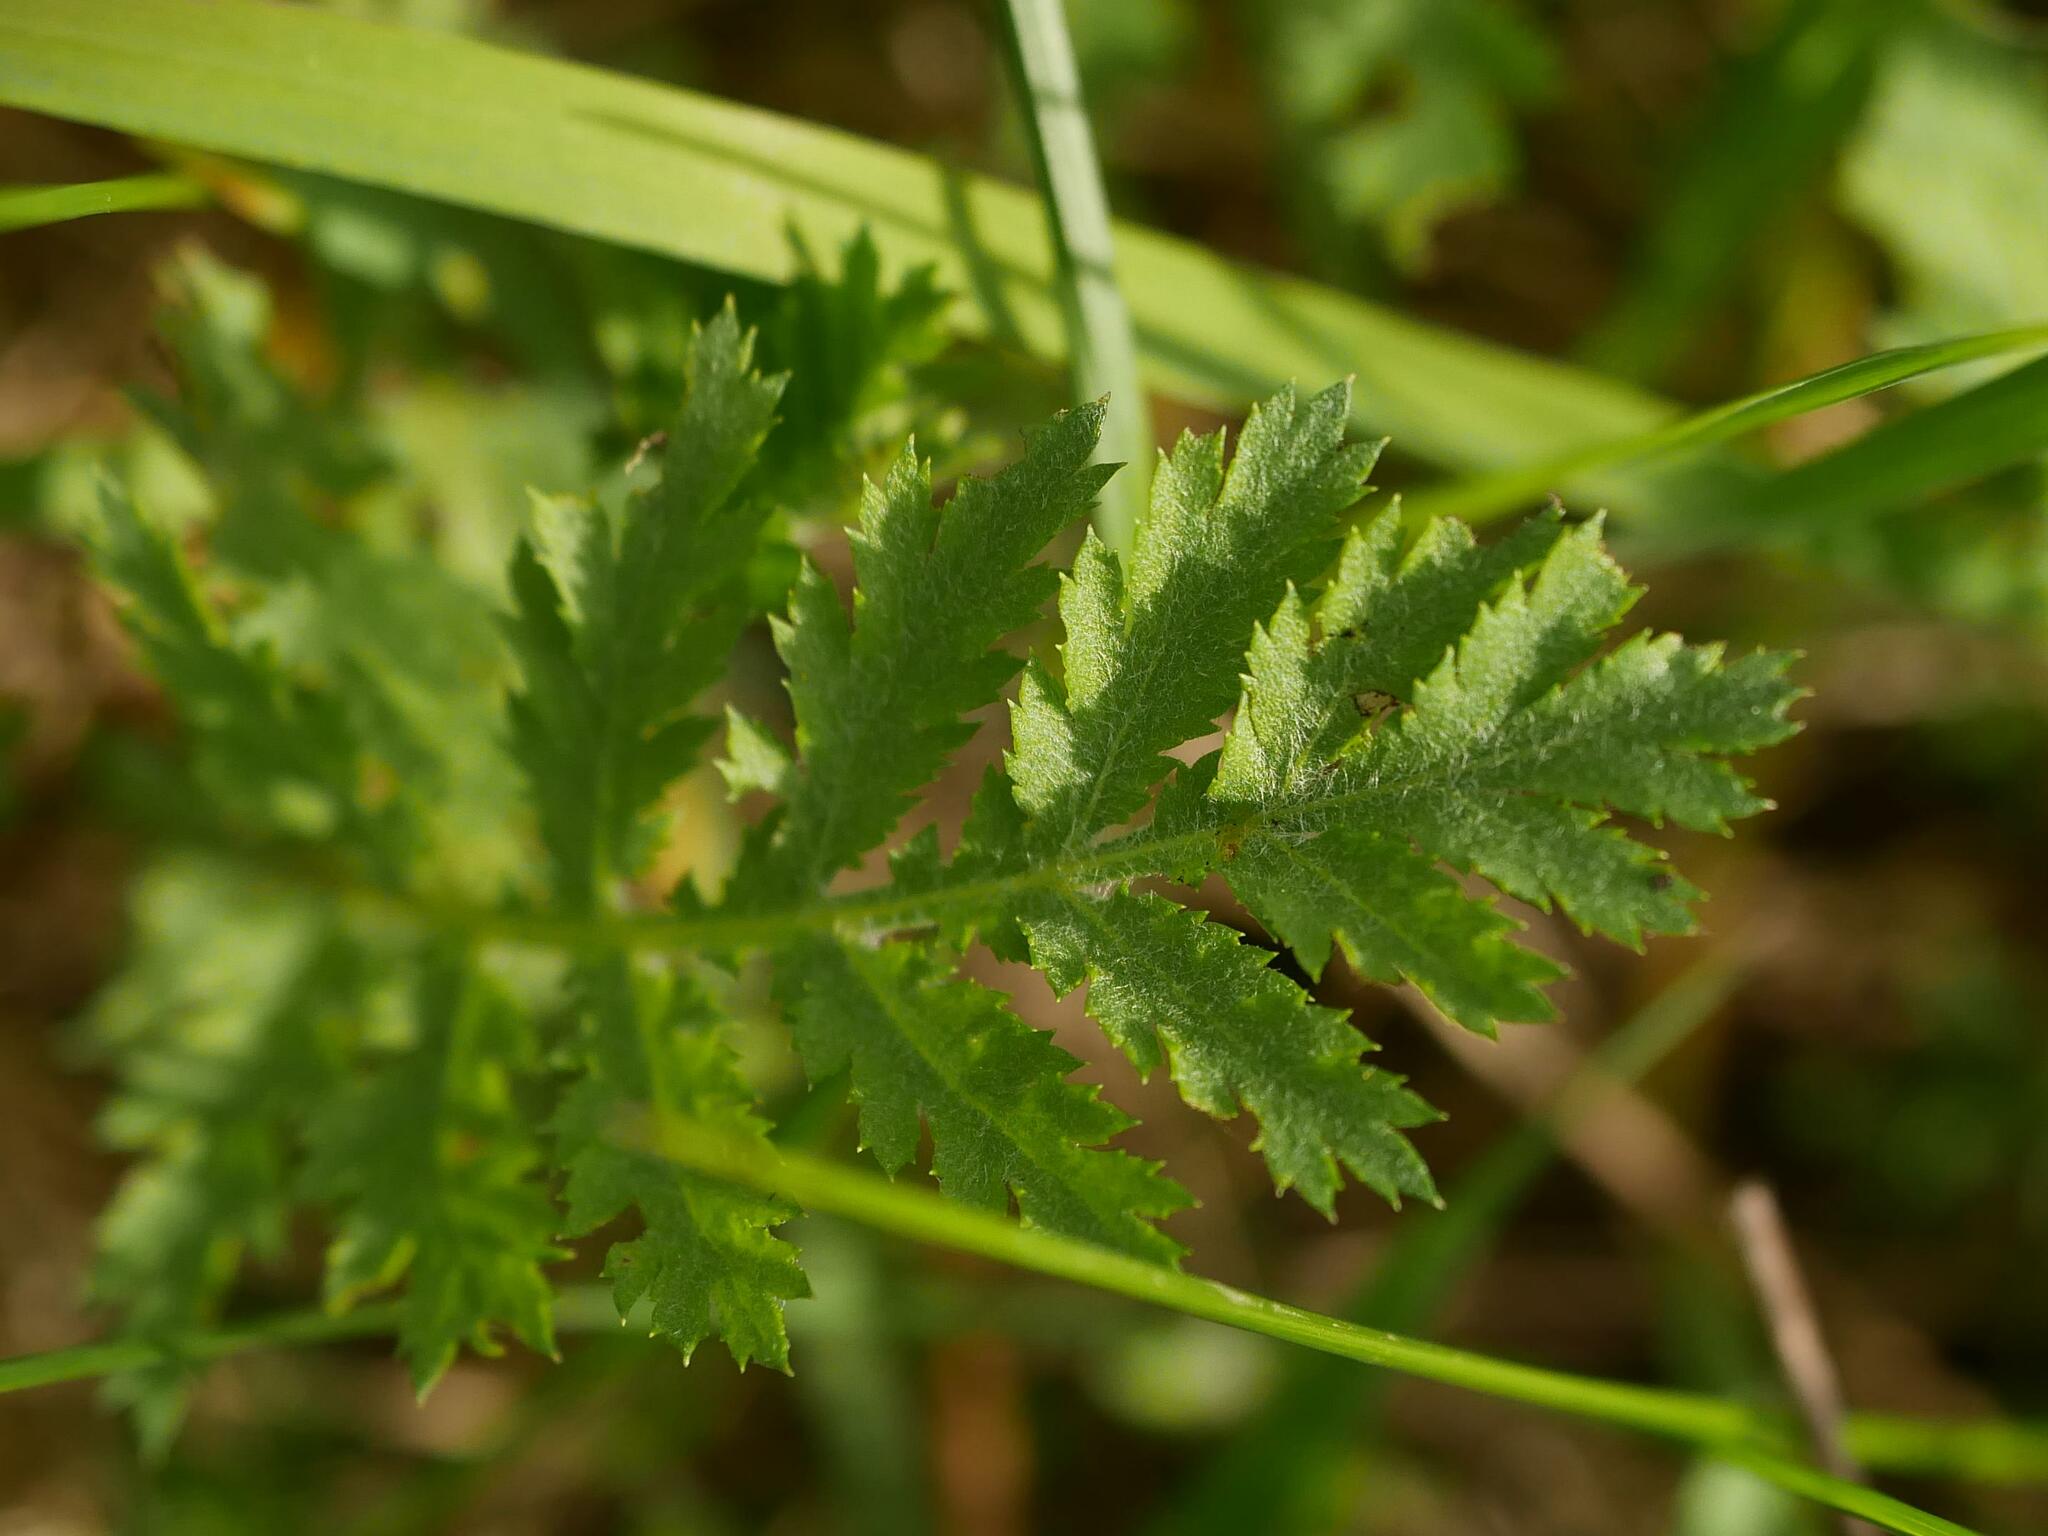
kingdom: Plantae
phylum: Tracheophyta
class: Magnoliopsida
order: Asterales
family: Asteraceae
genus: Tanacetum
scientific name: Tanacetum vulgare
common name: Common tansy
